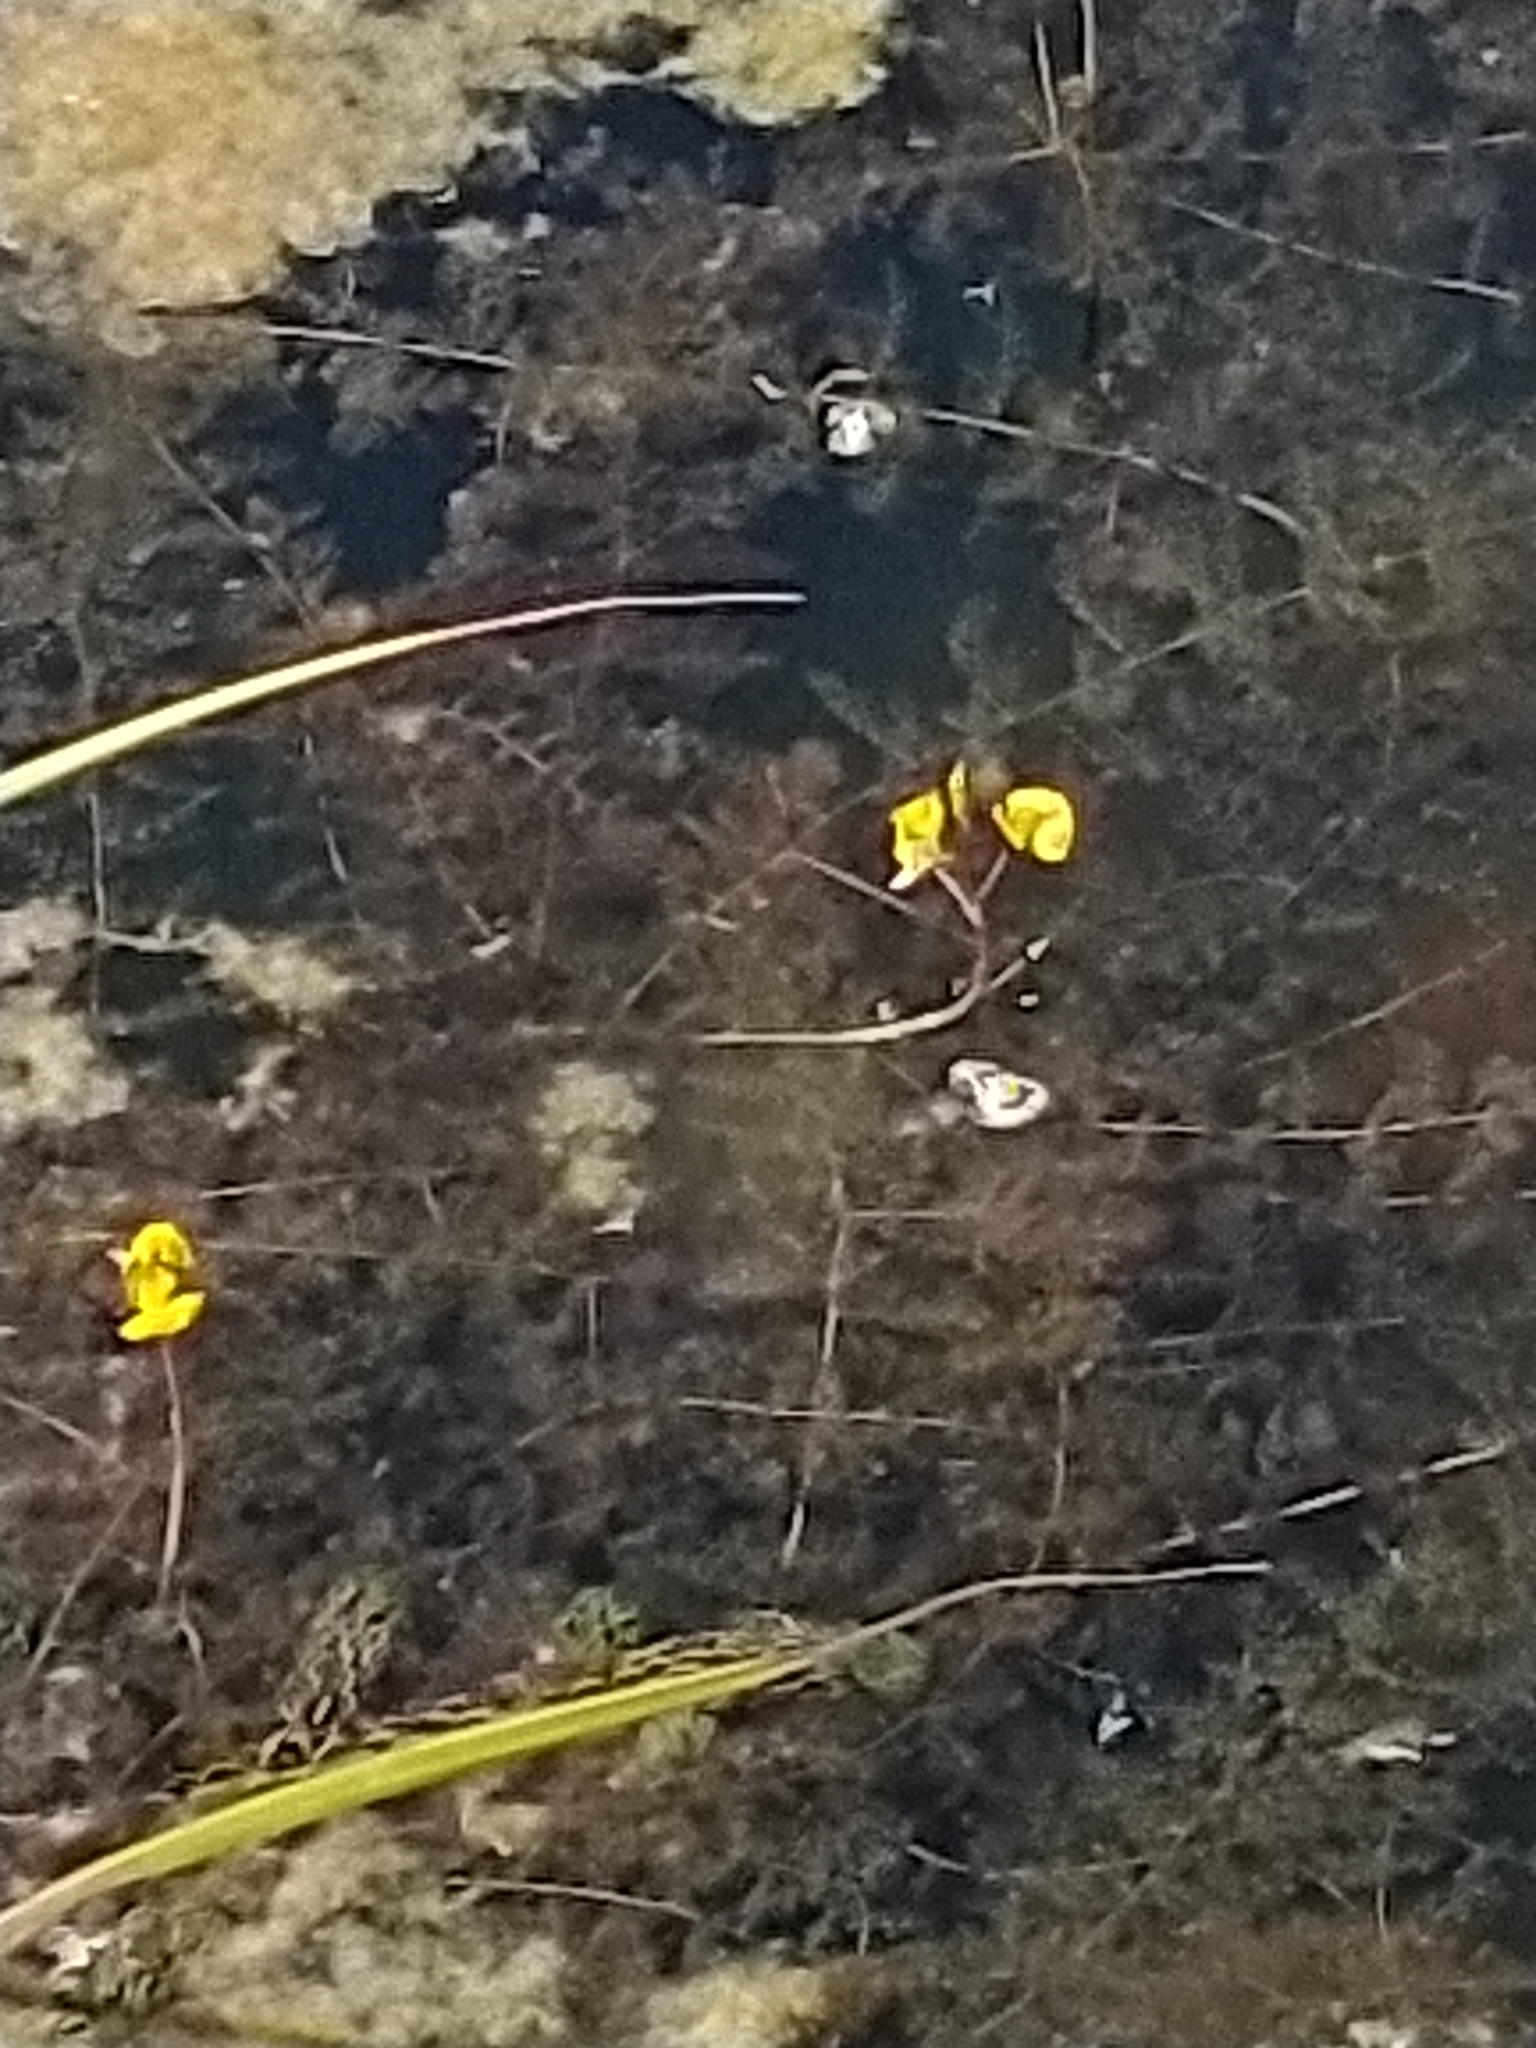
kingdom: Plantae
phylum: Tracheophyta
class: Magnoliopsida
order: Lamiales
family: Lentibulariaceae
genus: Utricularia
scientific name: Utricularia australis
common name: Bladderwort
